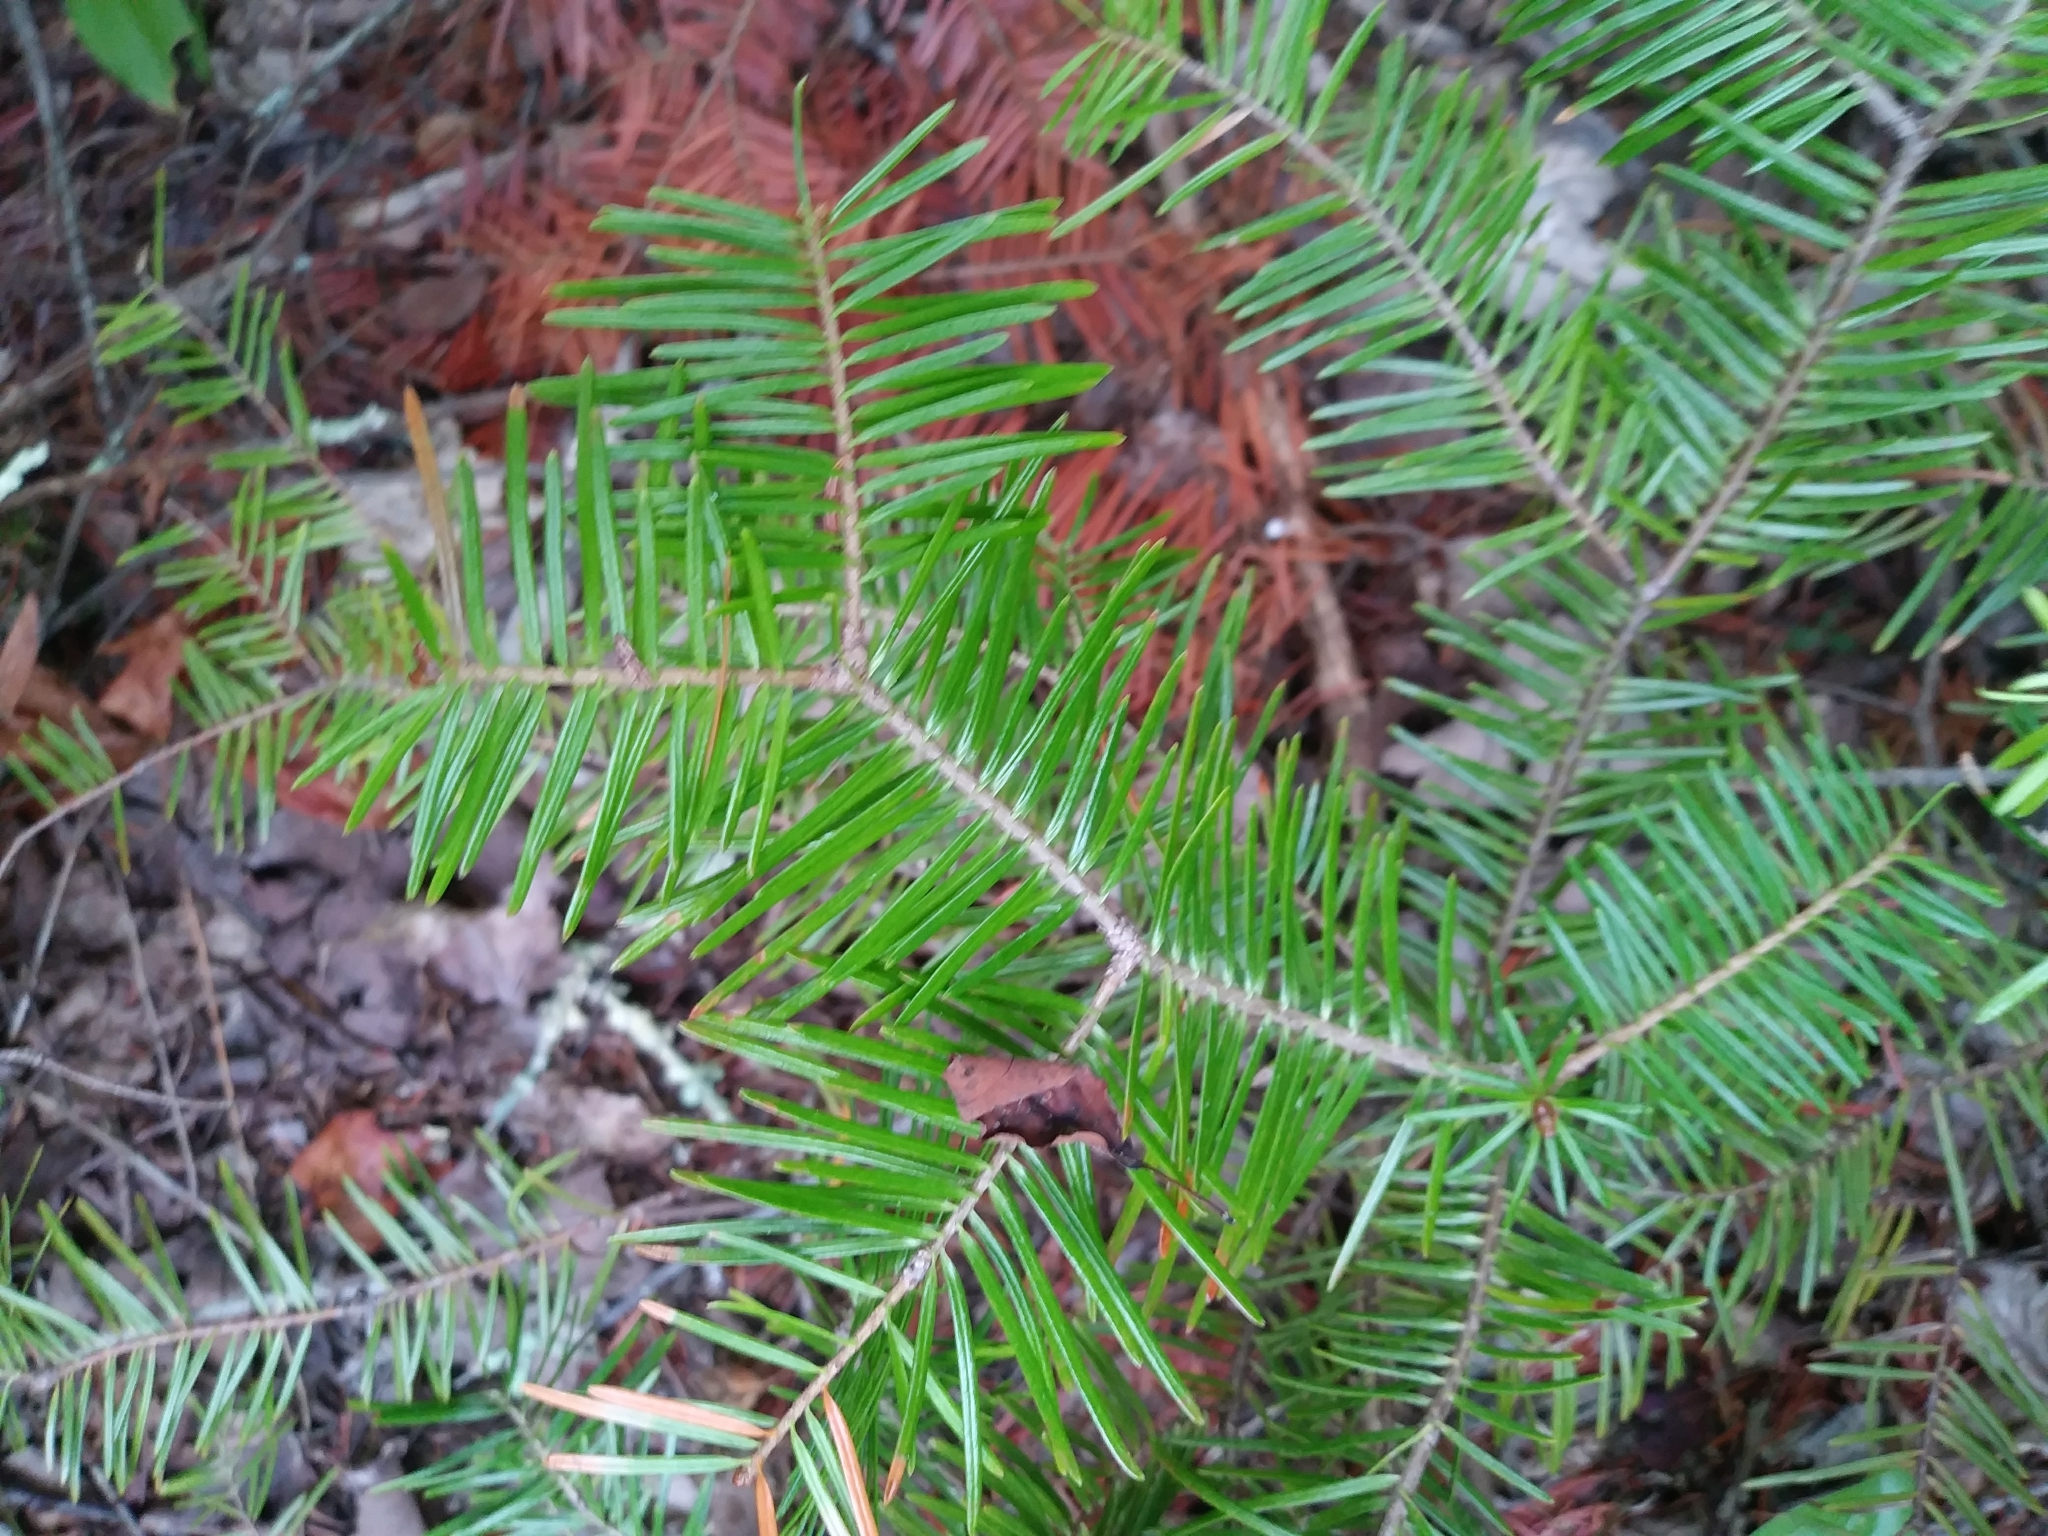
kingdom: Plantae
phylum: Tracheophyta
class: Pinopsida
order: Pinales
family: Pinaceae
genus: Abies
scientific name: Abies balsamea
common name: Balsam fir
